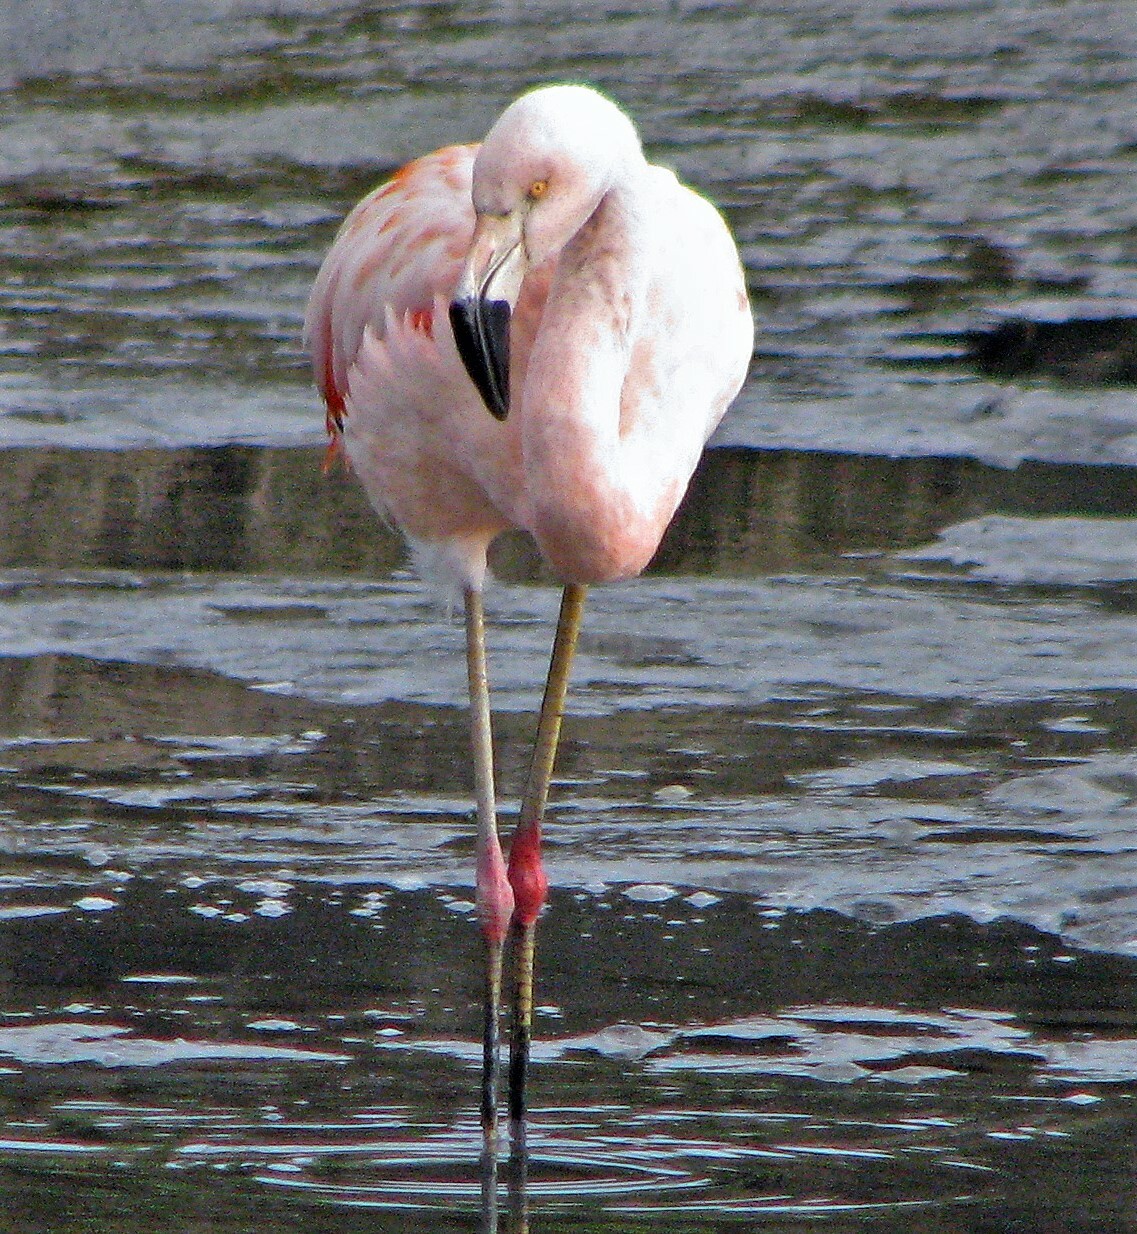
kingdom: Animalia
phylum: Chordata
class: Aves
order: Phoenicopteriformes
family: Phoenicopteridae
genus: Phoenicopterus
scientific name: Phoenicopterus chilensis
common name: Chilean flamingo
